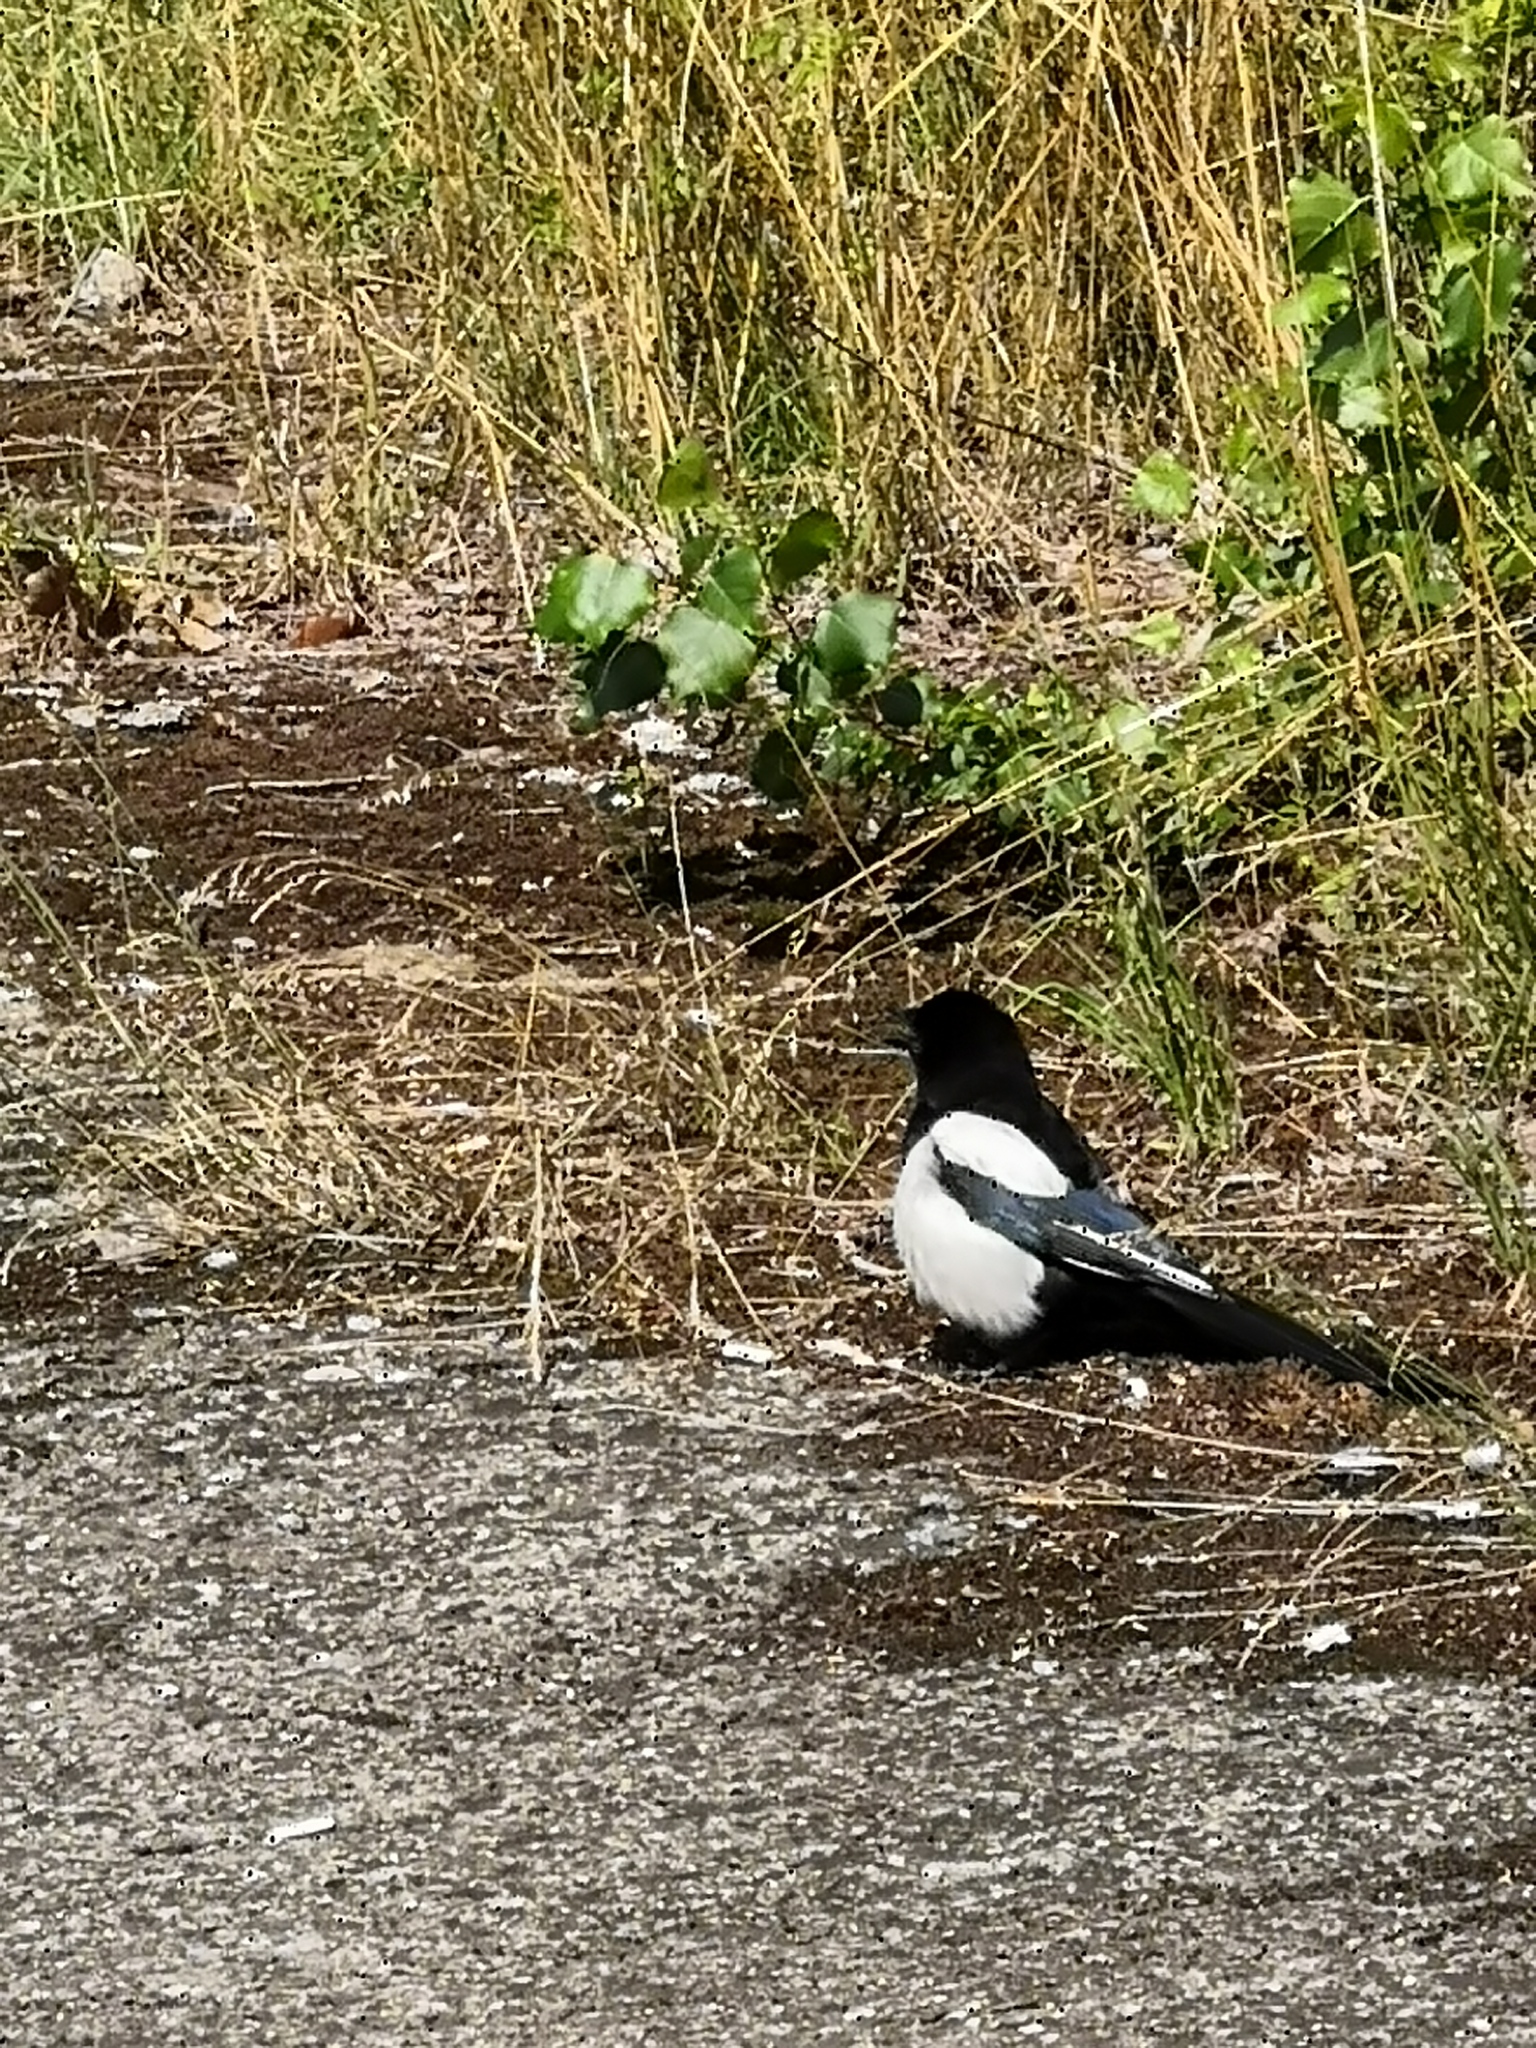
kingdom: Animalia
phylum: Chordata
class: Aves
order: Passeriformes
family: Corvidae
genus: Pica
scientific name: Pica pica
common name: Eurasian magpie
